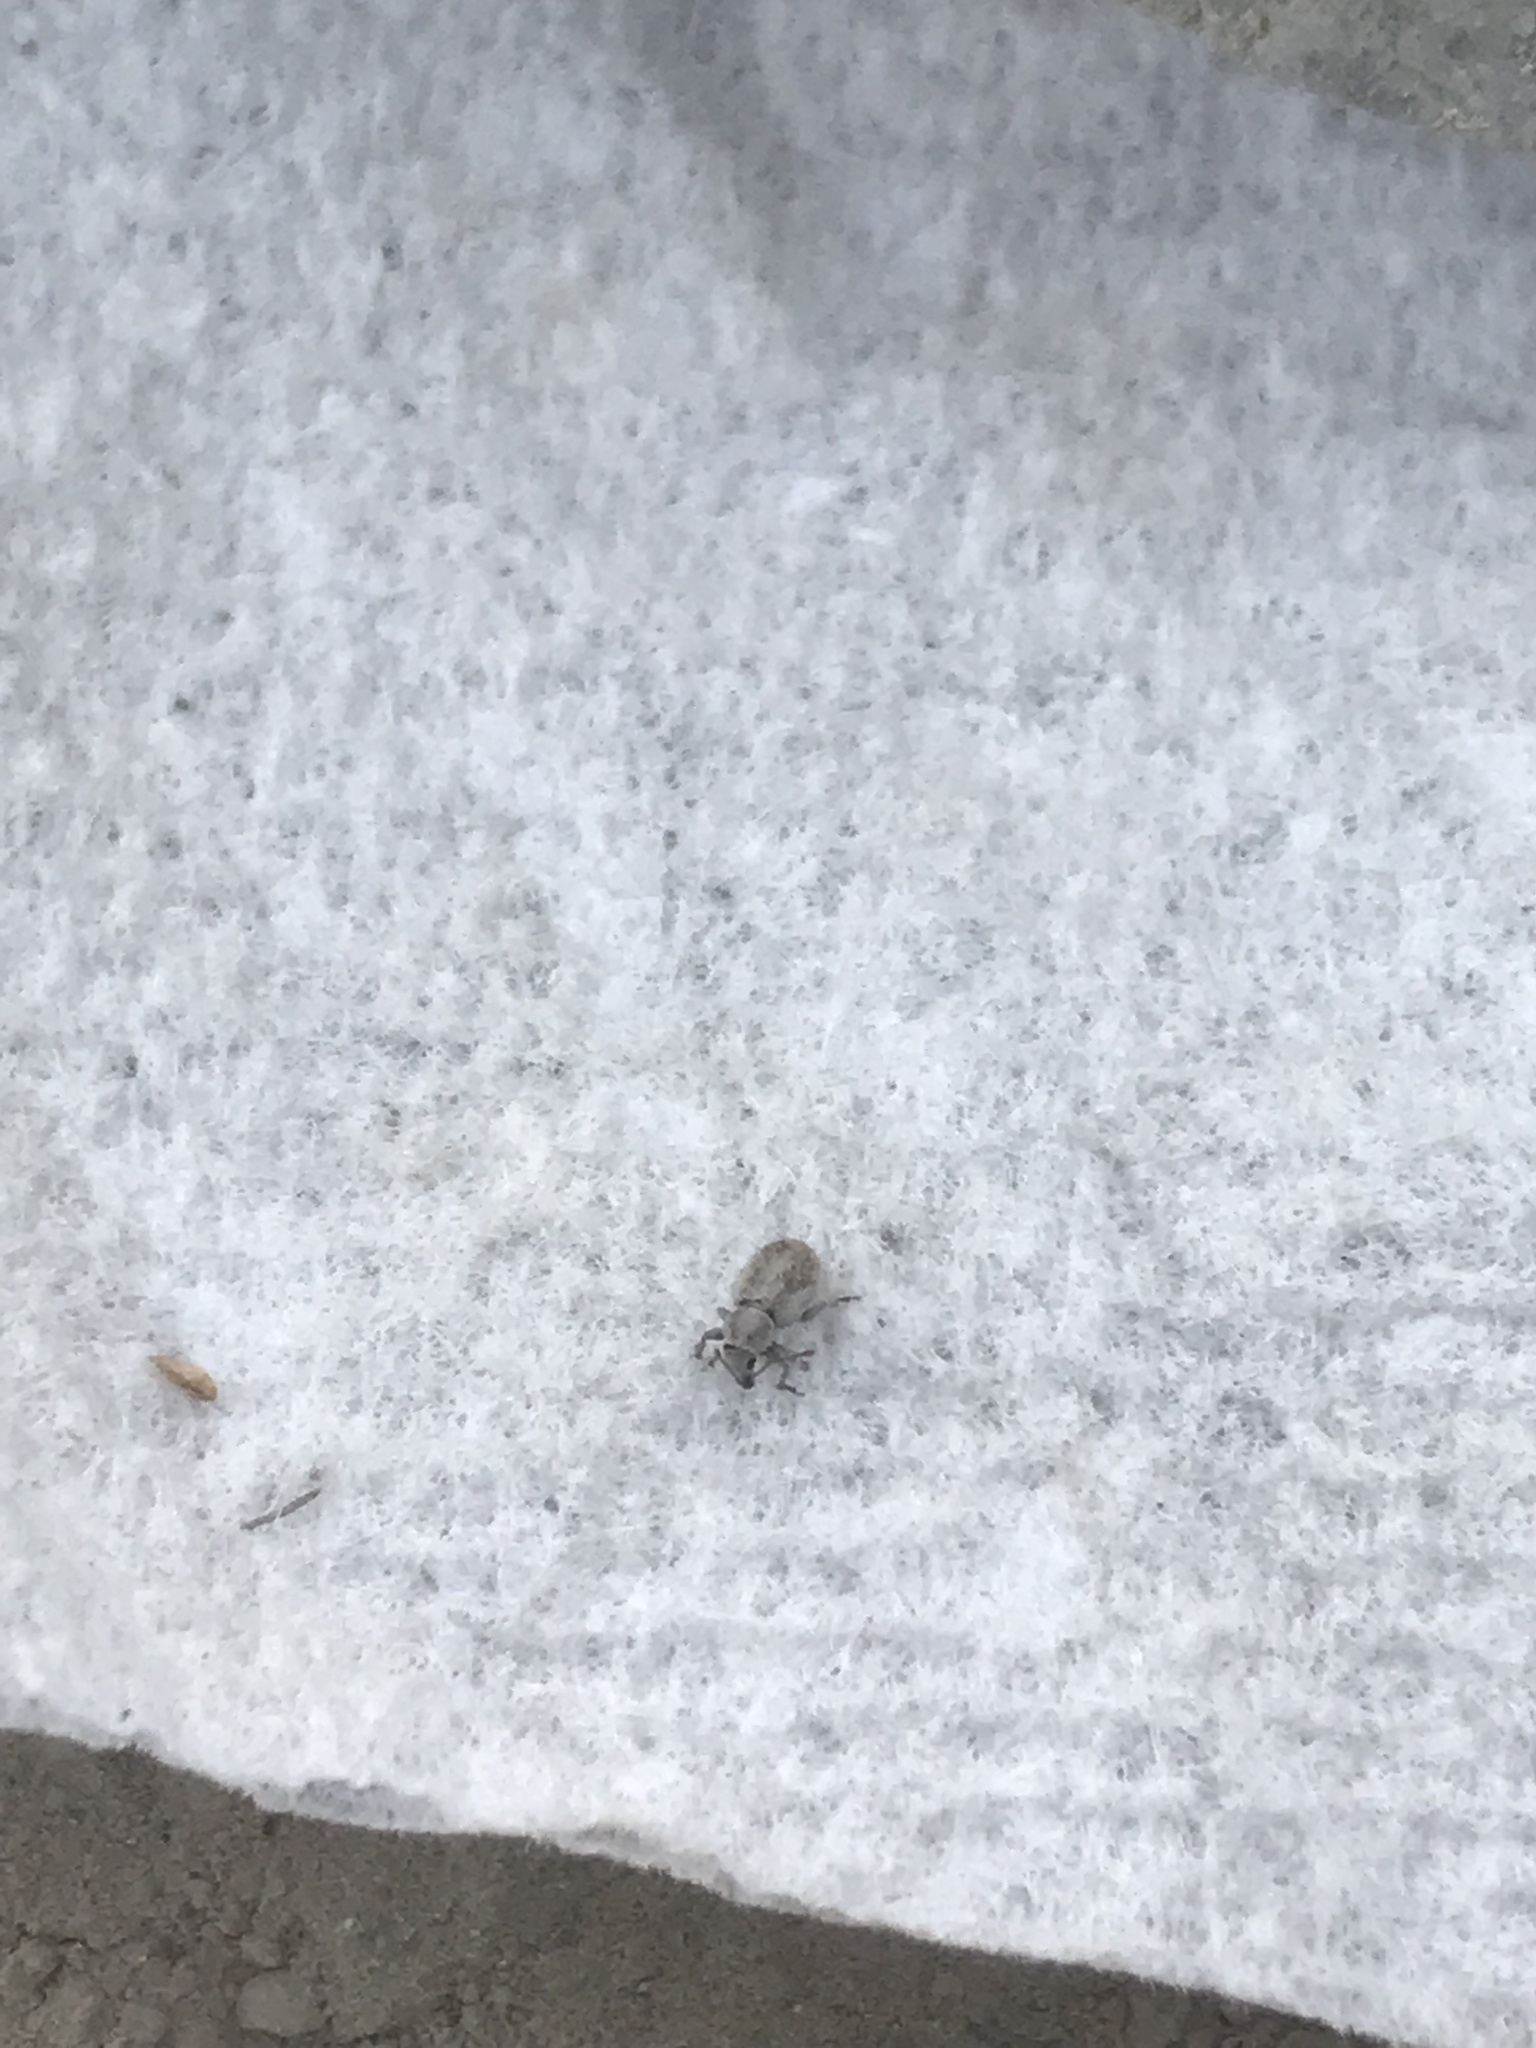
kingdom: Animalia
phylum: Arthropoda
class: Insecta
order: Coleoptera
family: Curculionidae
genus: Cercopedius
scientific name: Cercopedius artemisiae
